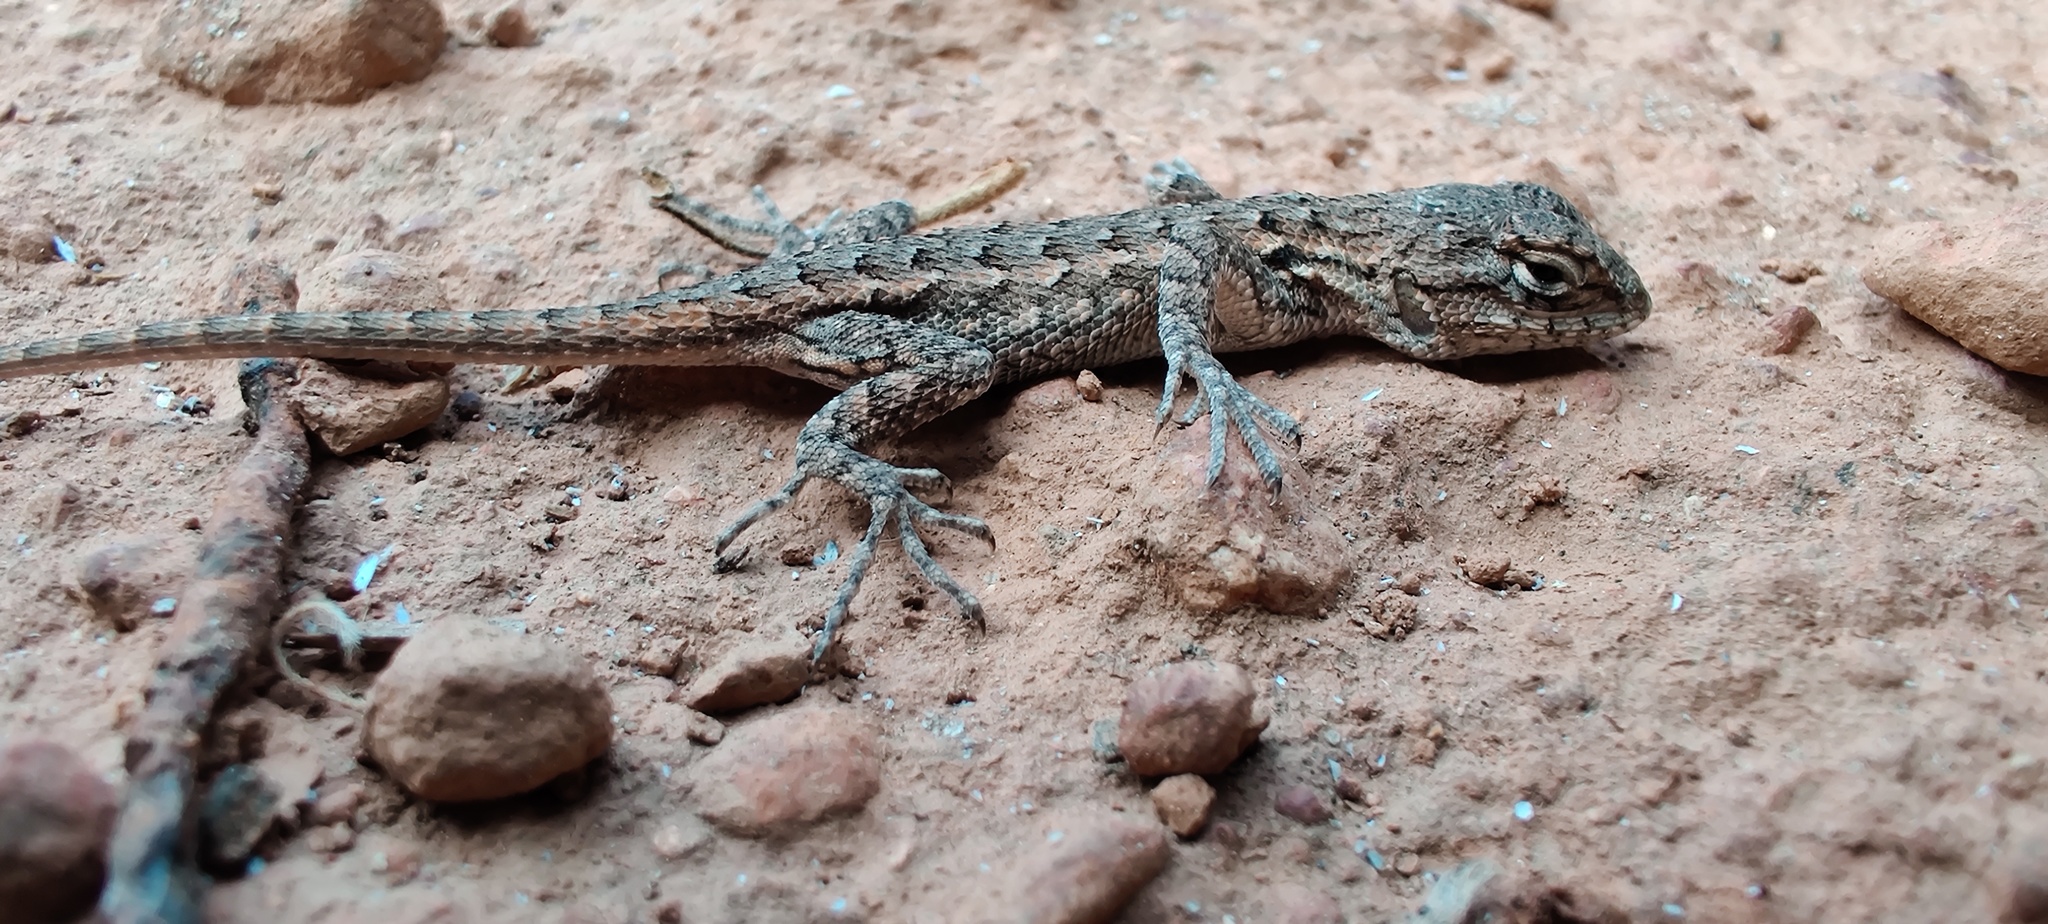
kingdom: Animalia
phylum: Chordata
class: Squamata
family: Phrynosomatidae
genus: Sceloporus
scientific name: Sceloporus occidentalis
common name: Western fence lizard
